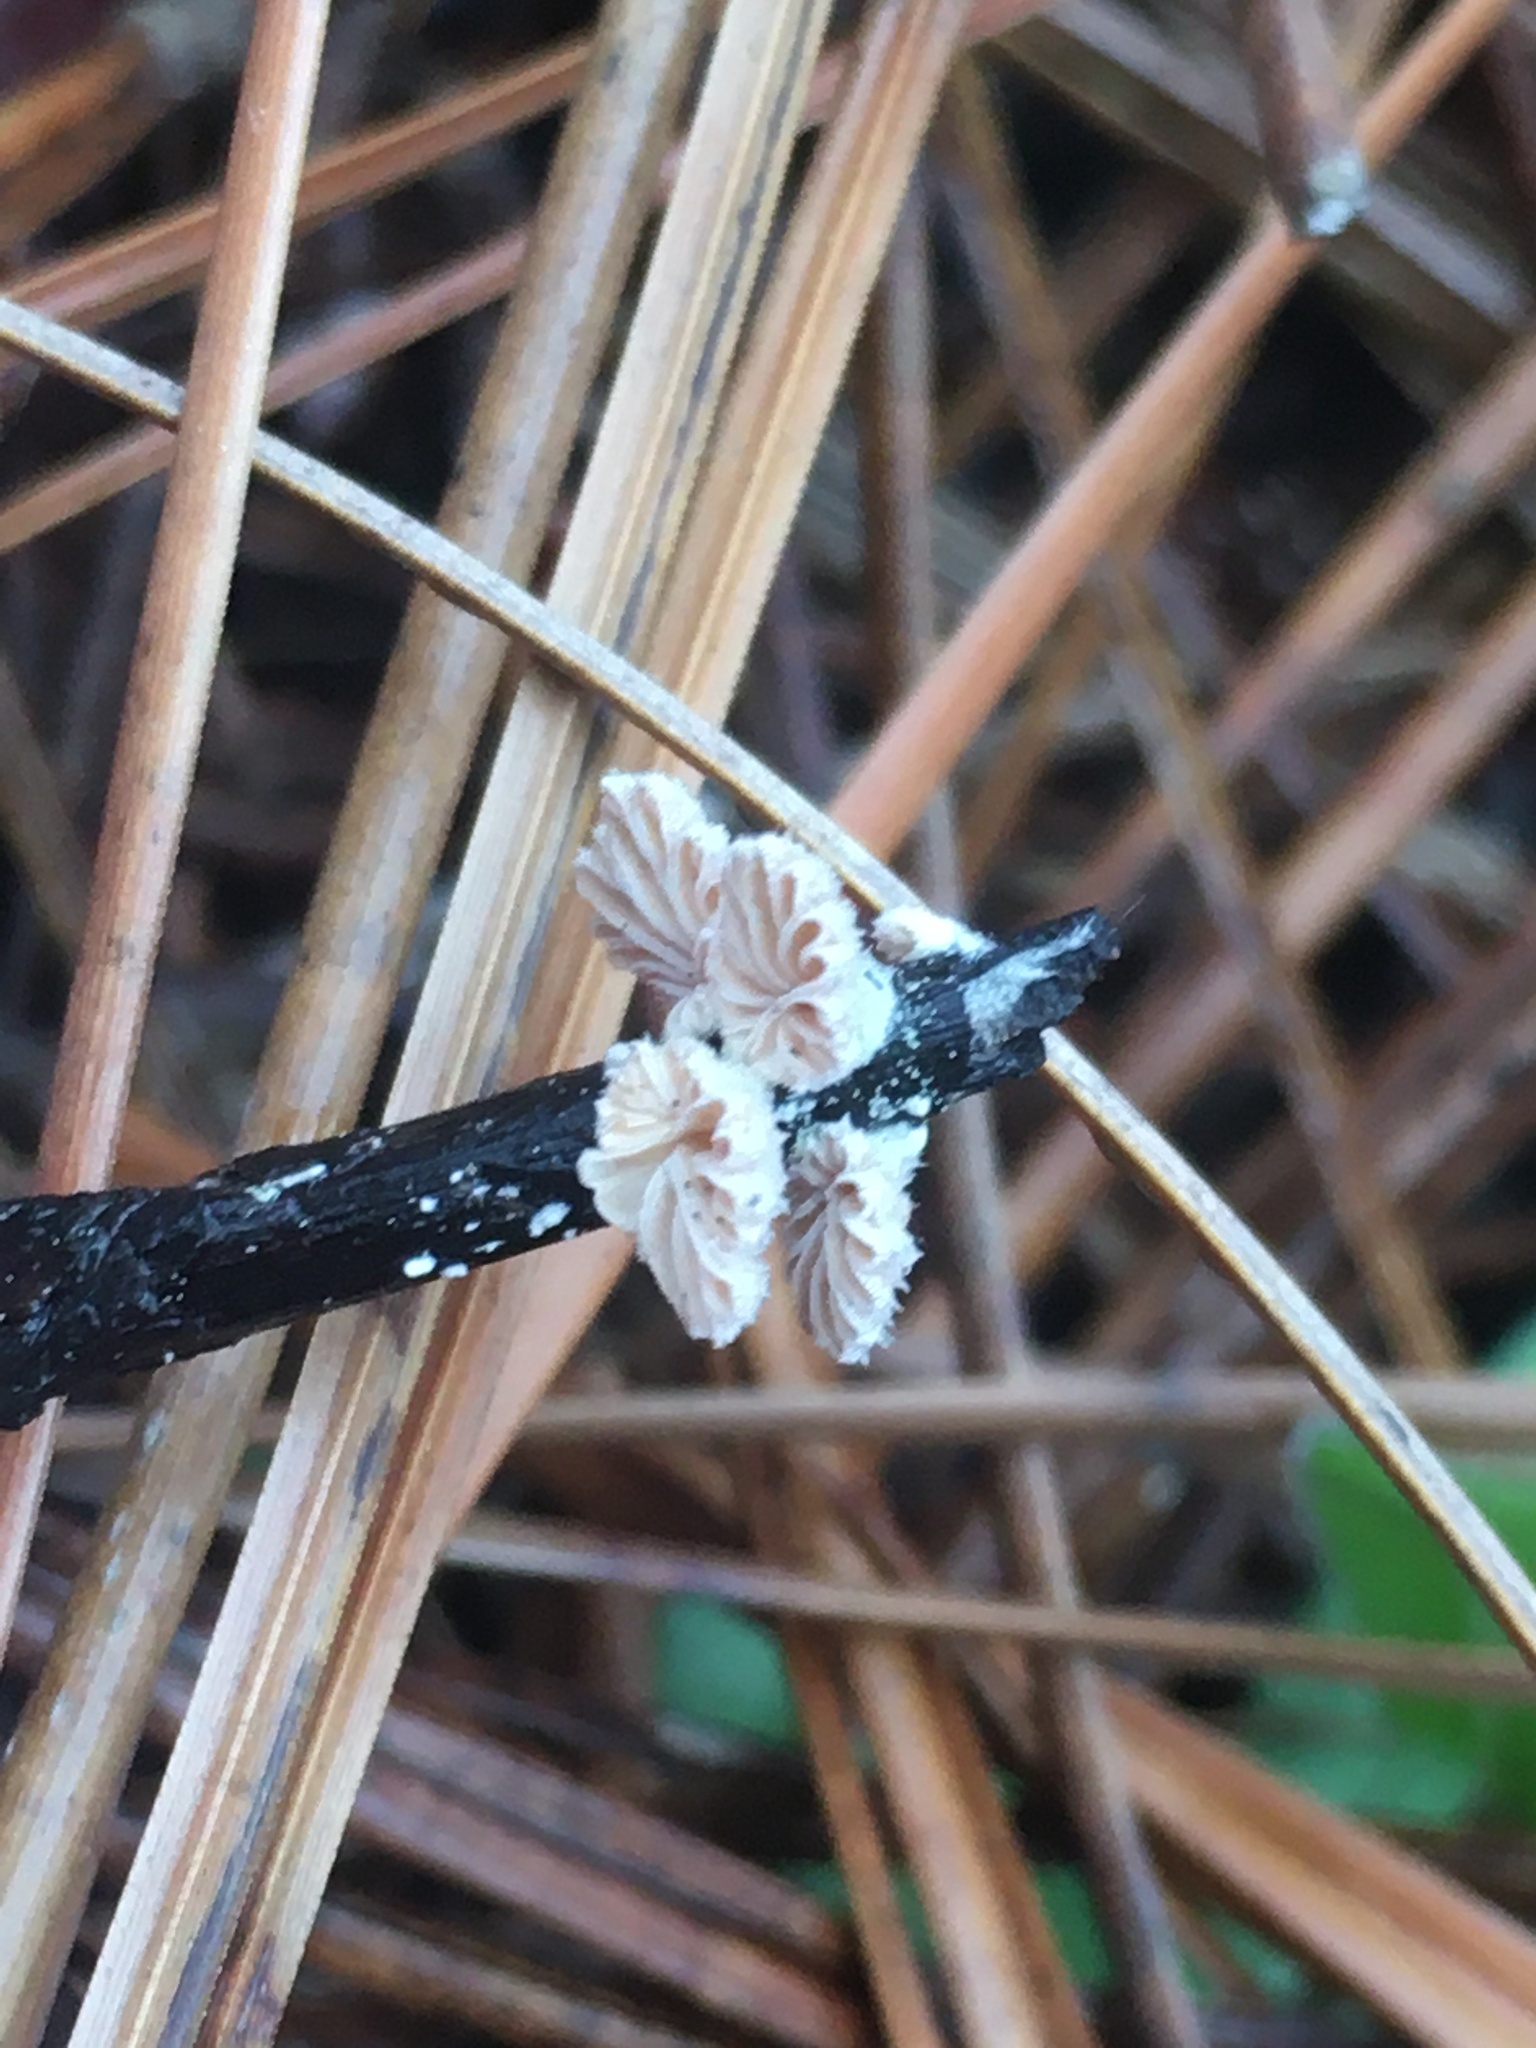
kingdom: Fungi
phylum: Basidiomycota
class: Agaricomycetes
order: Agaricales
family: Schizophyllaceae
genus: Schizophyllum
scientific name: Schizophyllum commune
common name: Common porecrust
